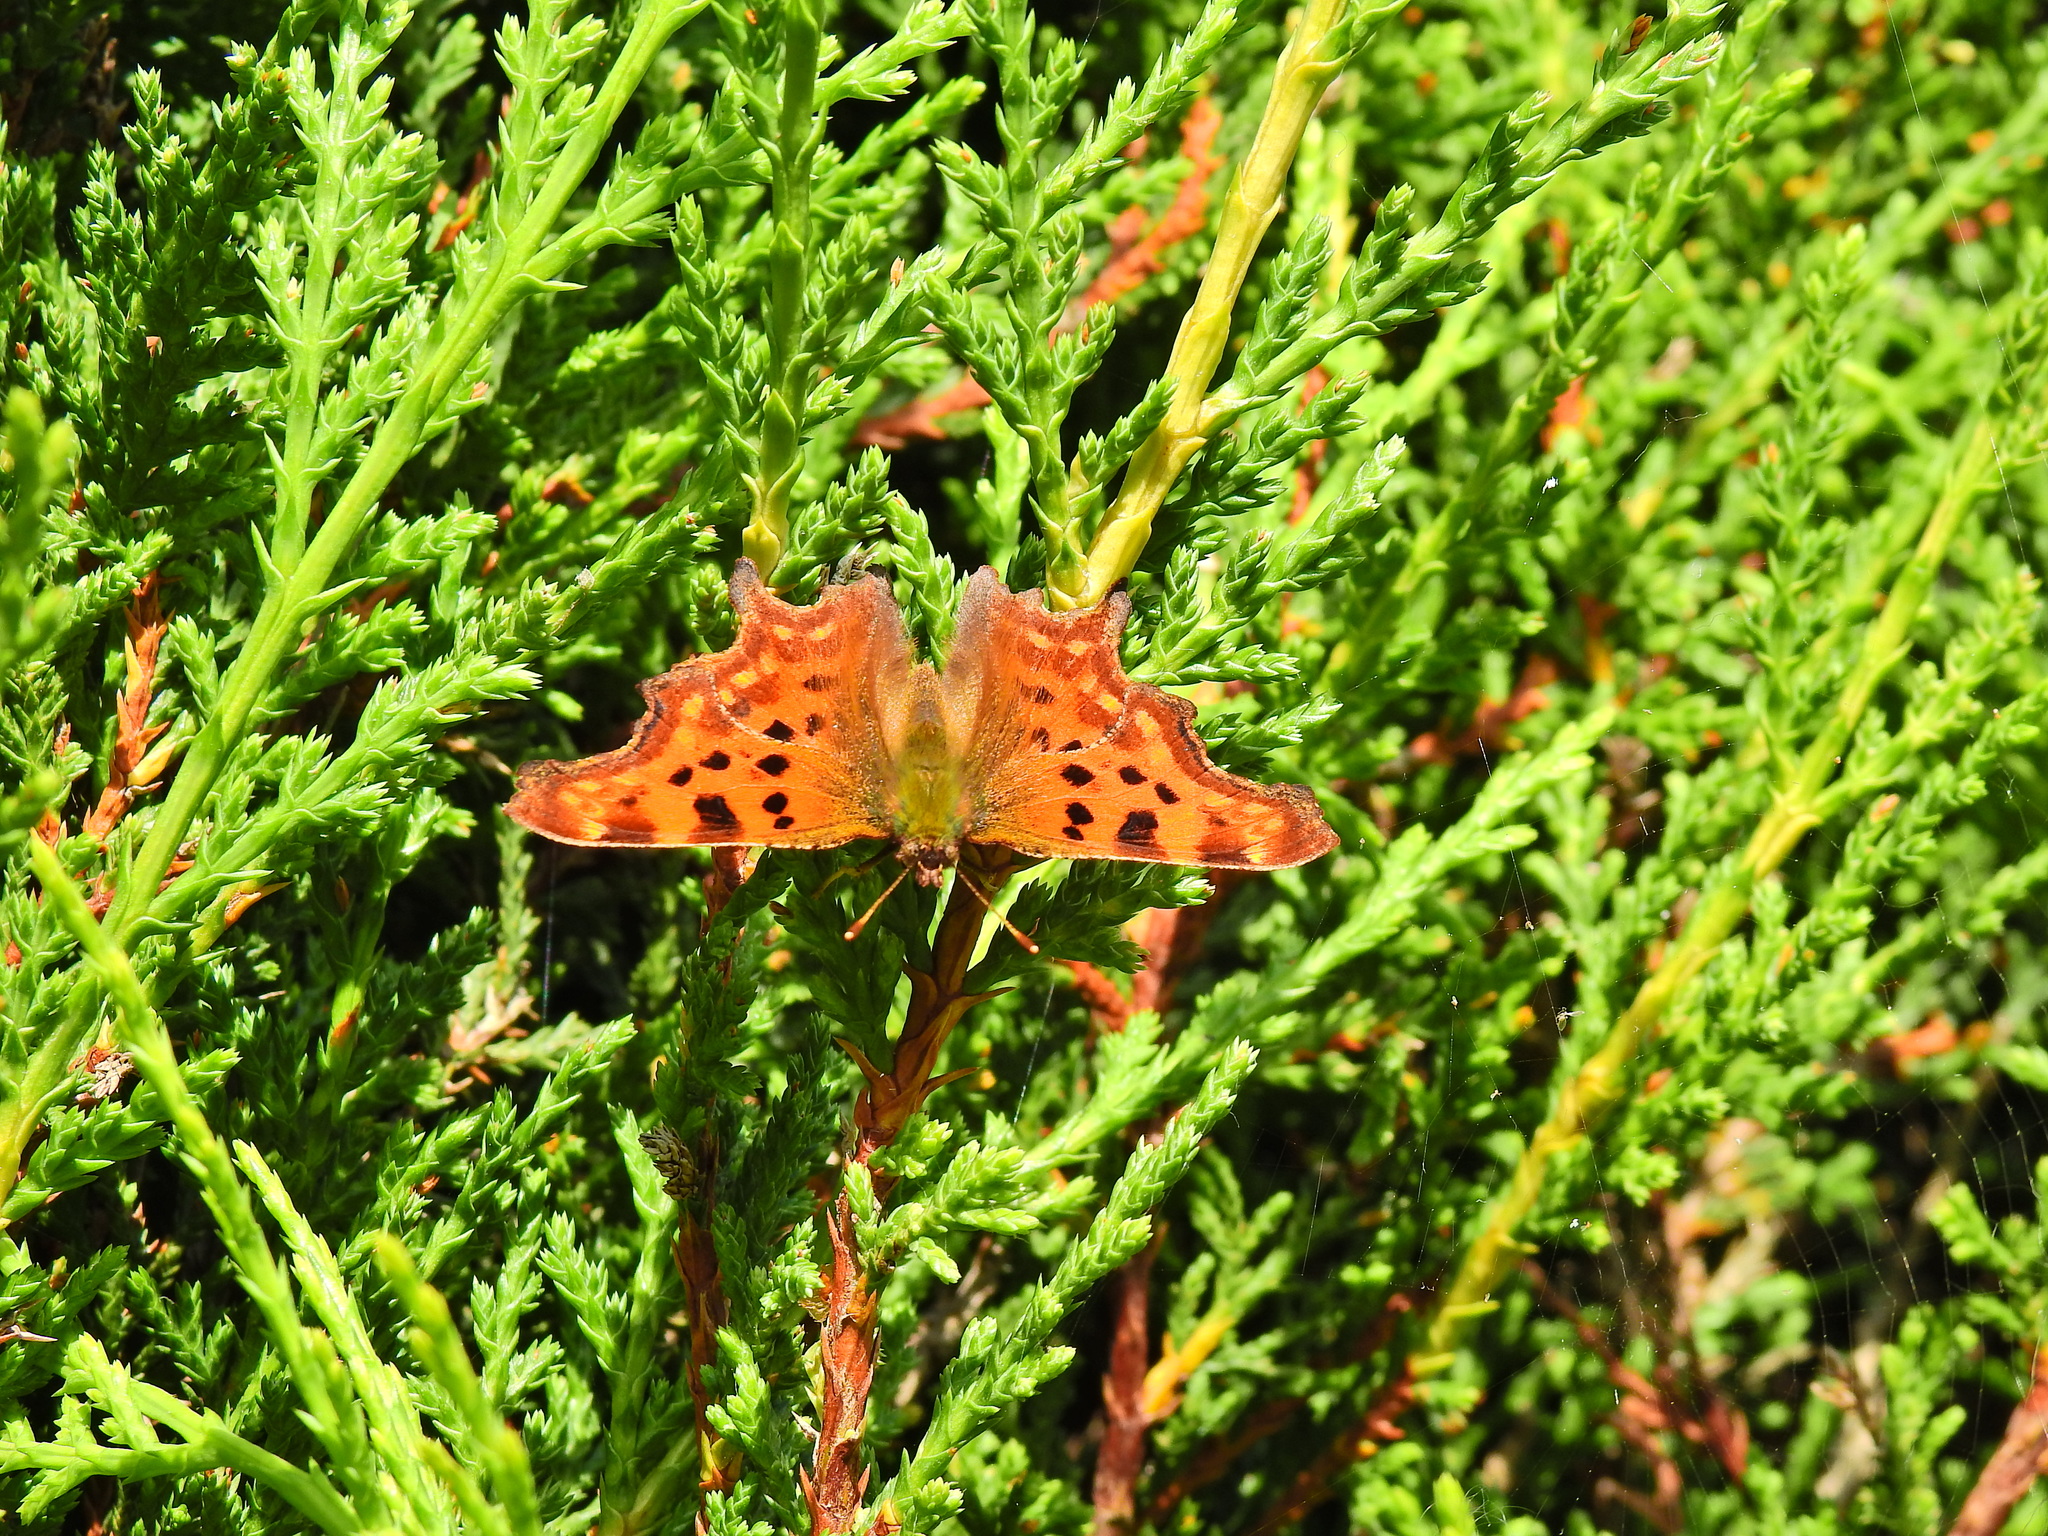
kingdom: Animalia
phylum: Arthropoda
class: Insecta
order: Lepidoptera
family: Nymphalidae
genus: Polygonia
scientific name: Polygonia c-album
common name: Comma
